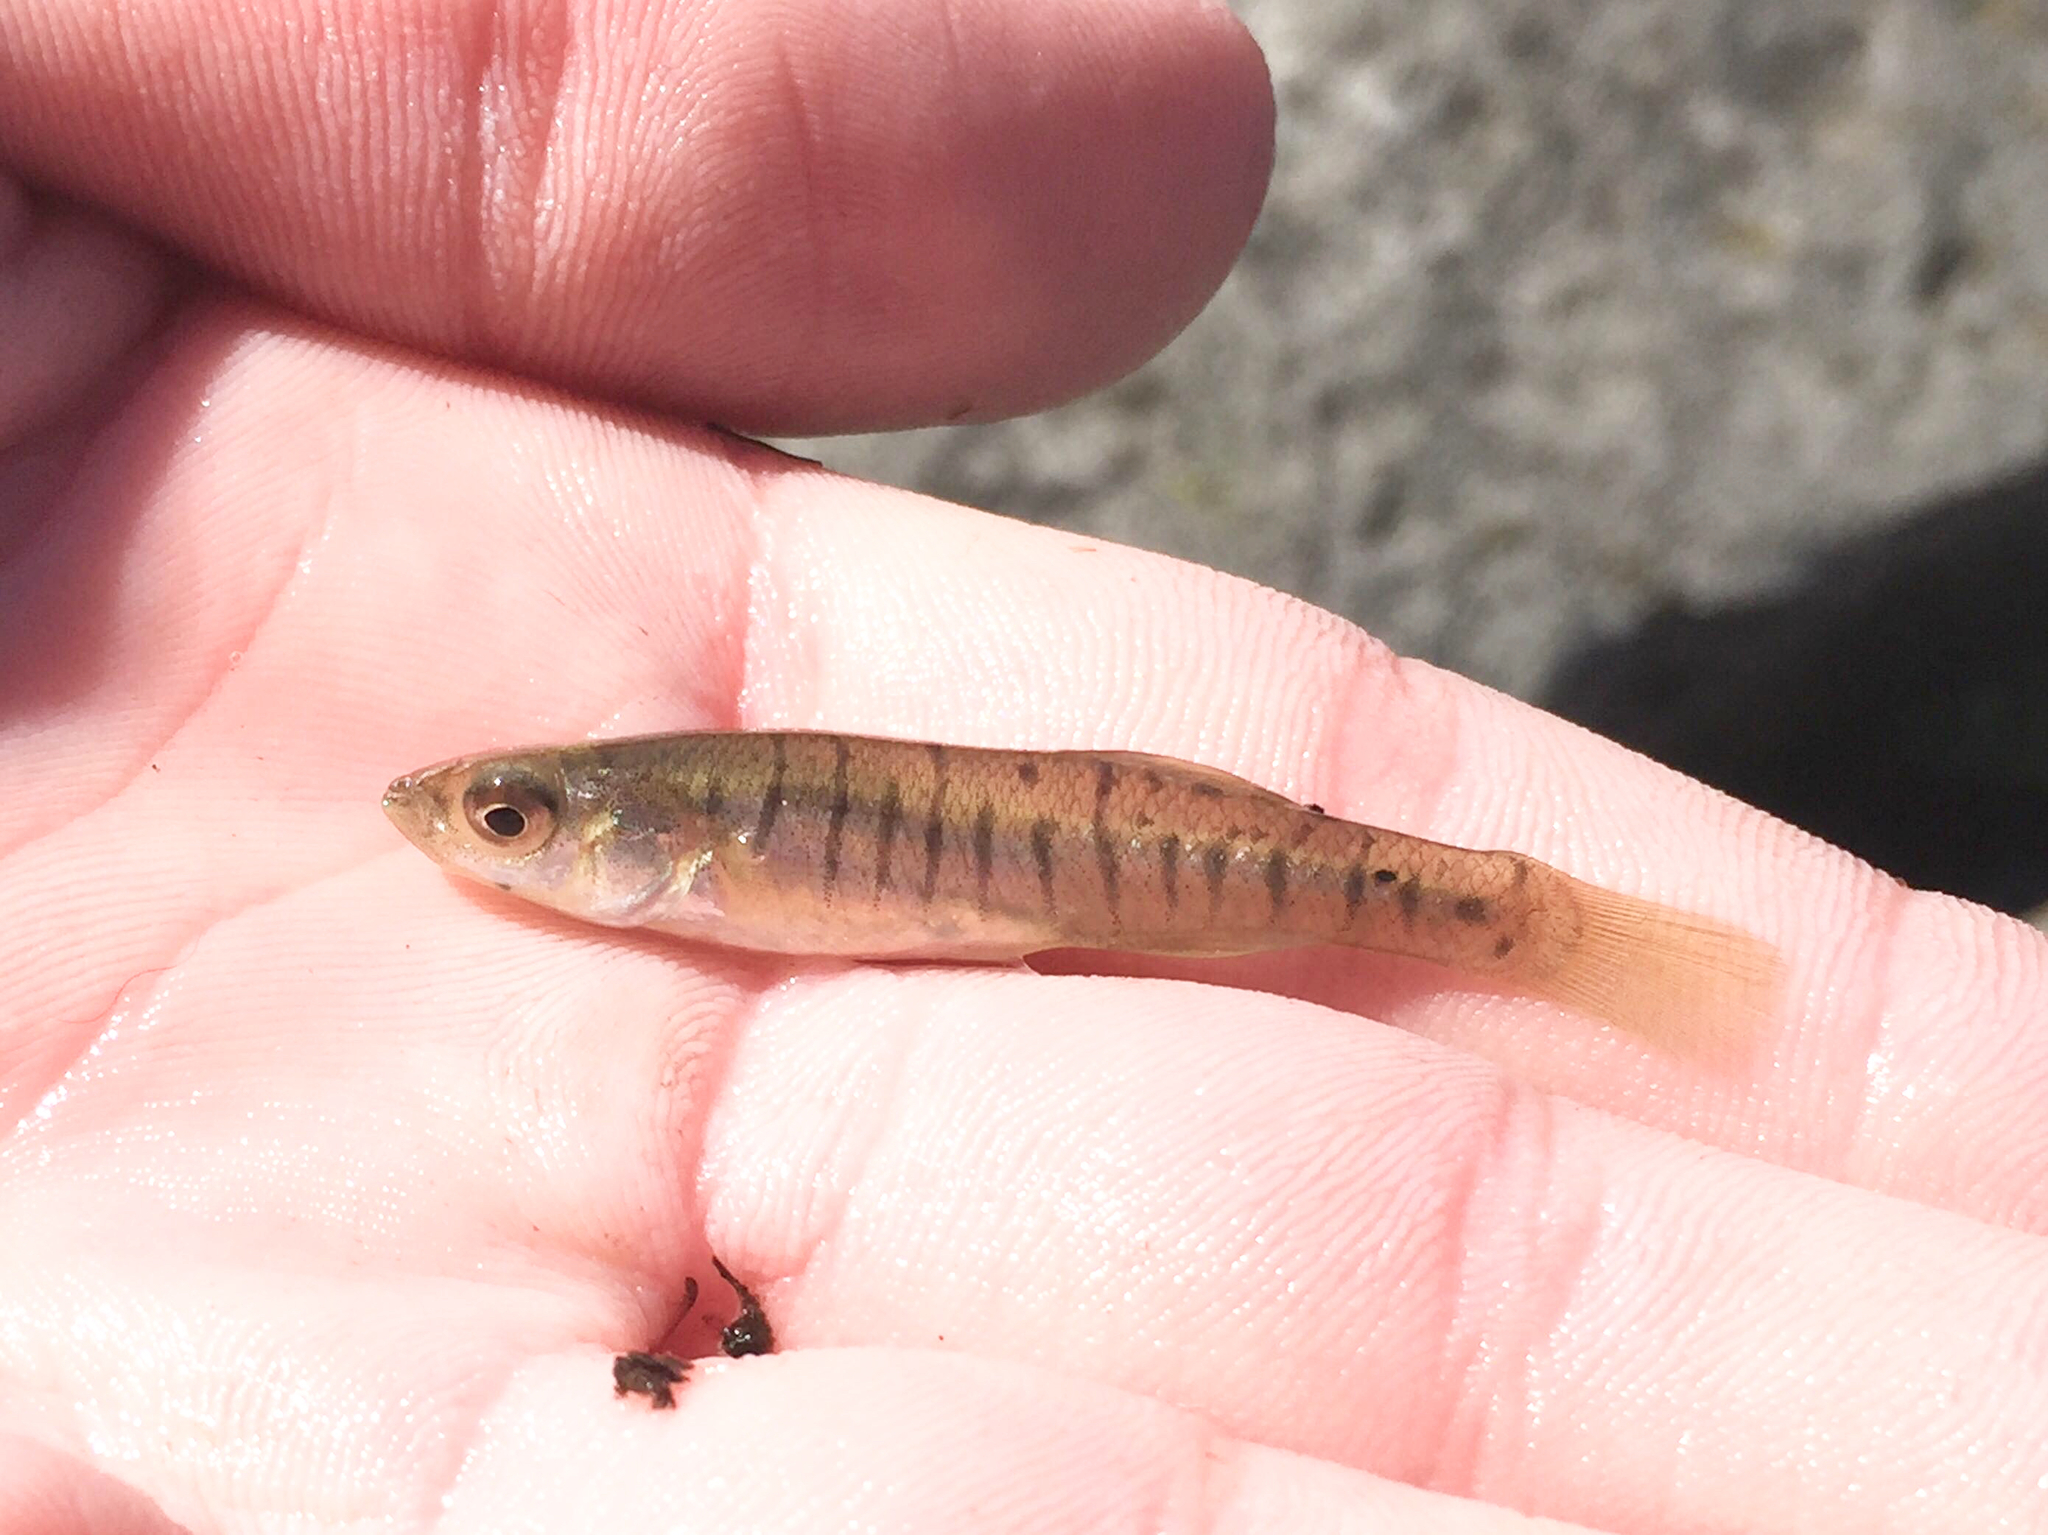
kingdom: Animalia
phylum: Chordata
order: Cyprinodontiformes
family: Fundulidae
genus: Fundulus
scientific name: Fundulus diaphanus
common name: Banded killifish
